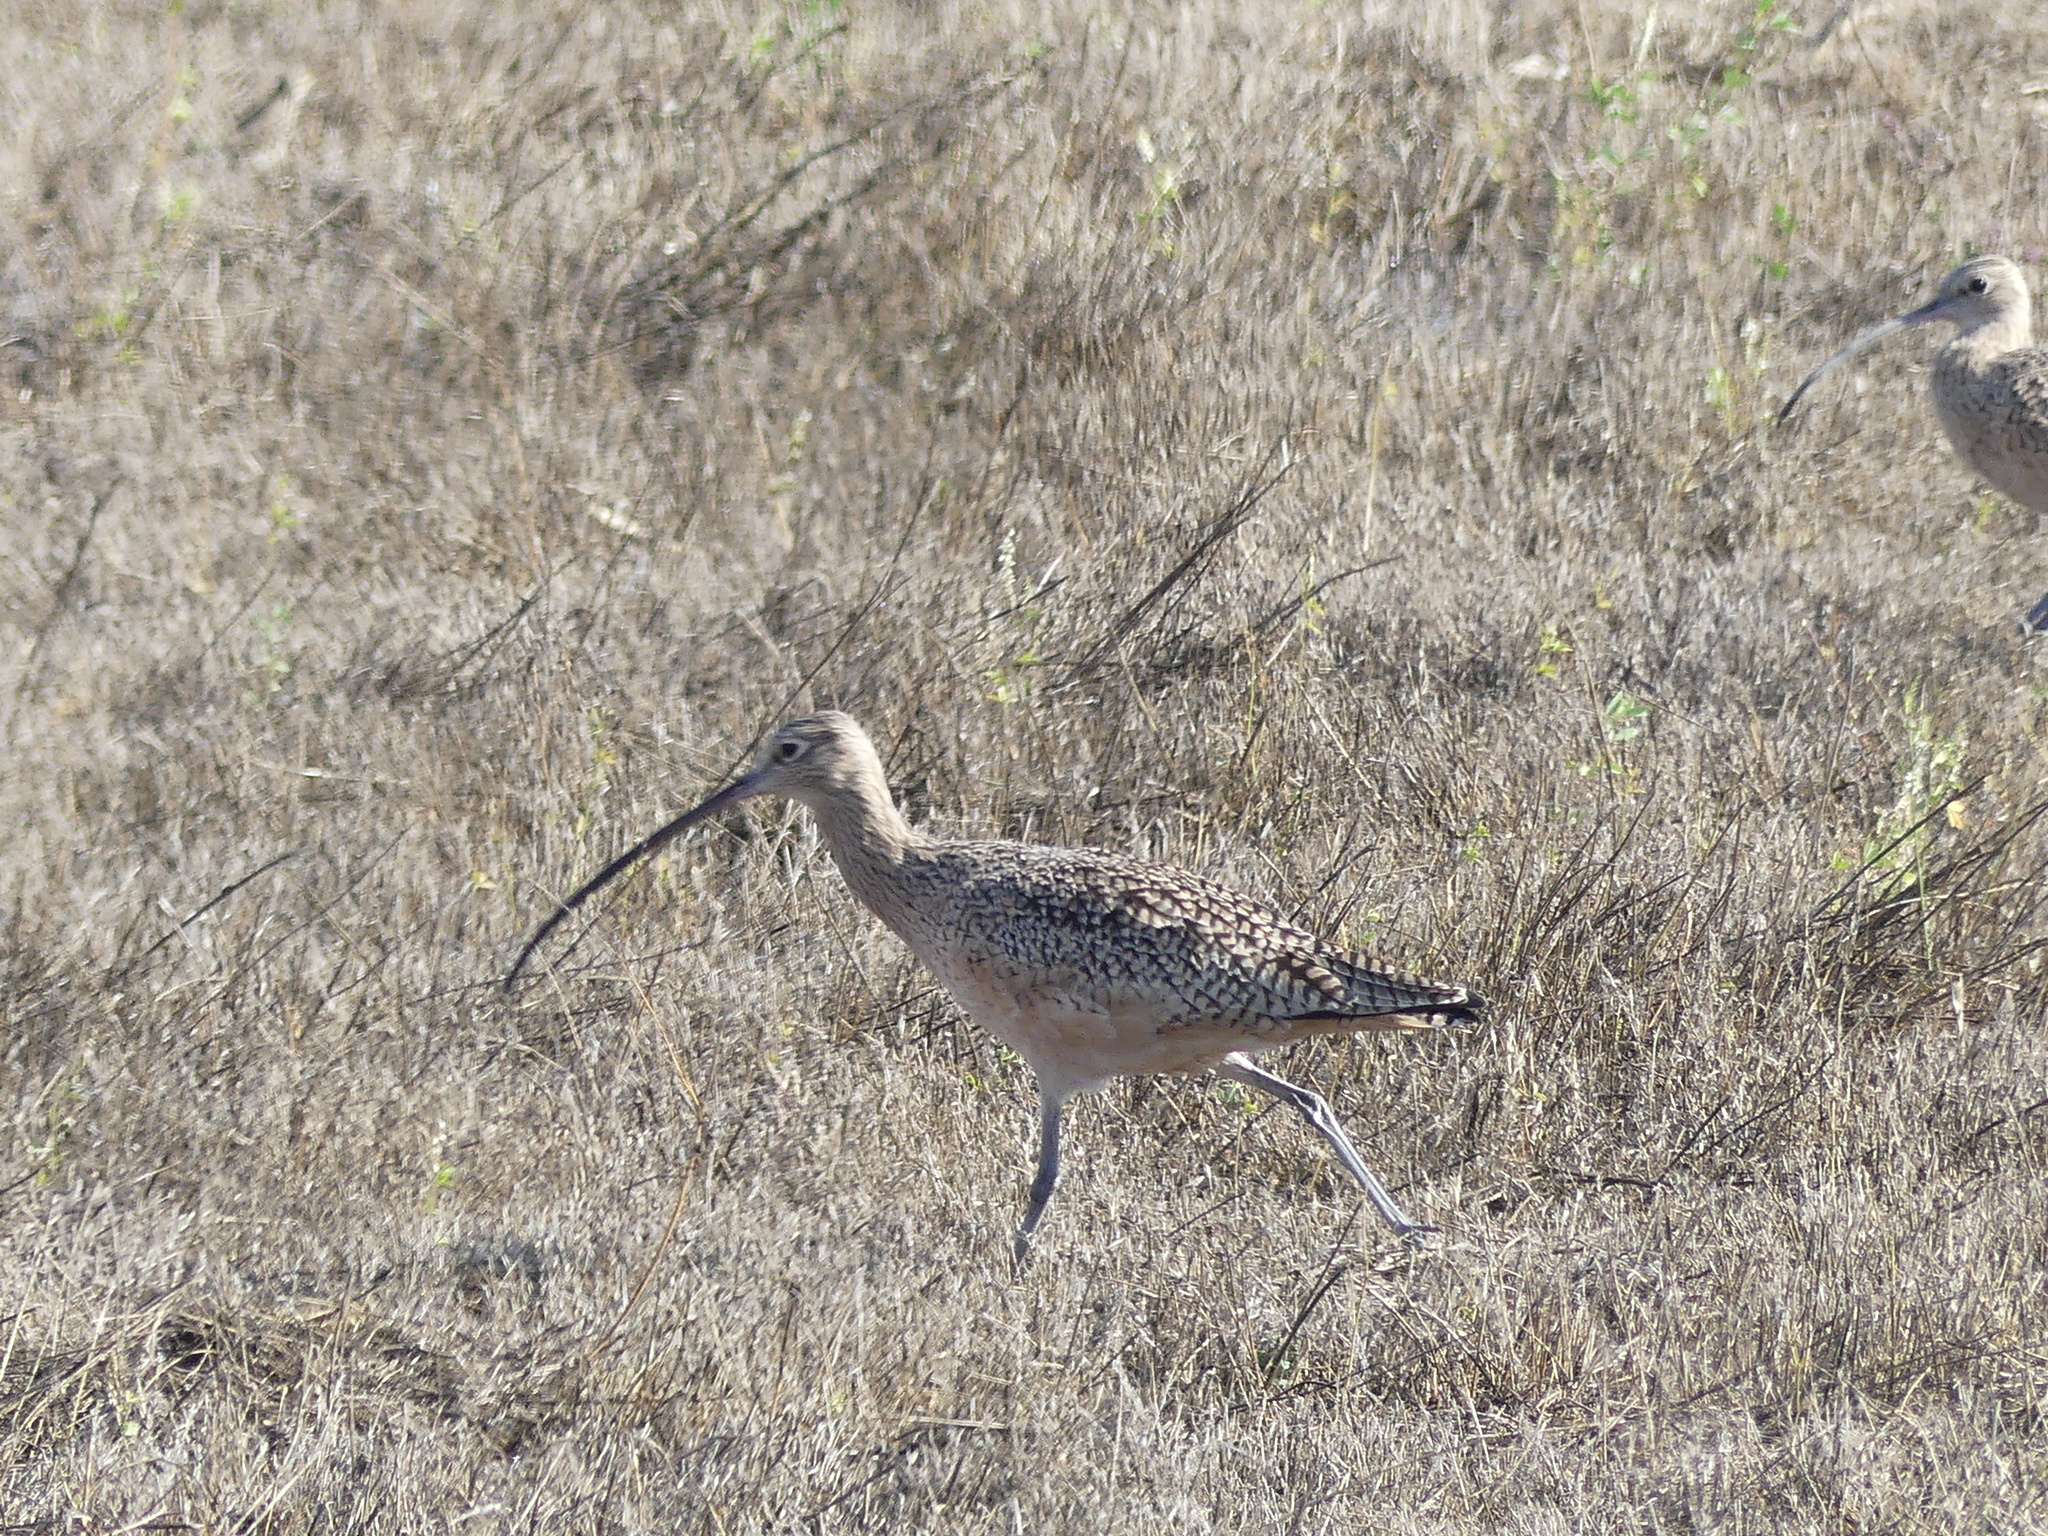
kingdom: Animalia
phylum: Chordata
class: Aves
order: Charadriiformes
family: Scolopacidae
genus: Numenius
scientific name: Numenius americanus
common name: Long-billed curlew
